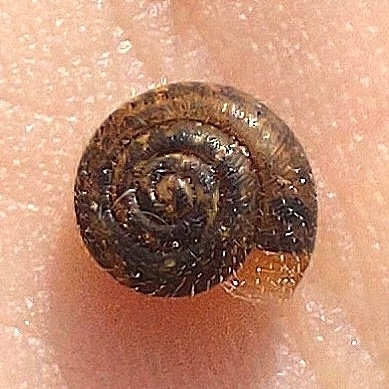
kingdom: Animalia
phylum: Mollusca
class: Gastropoda
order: Stylommatophora
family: Hygromiidae
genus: Trochulus
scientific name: Trochulus hispidus
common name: Hairy snail
